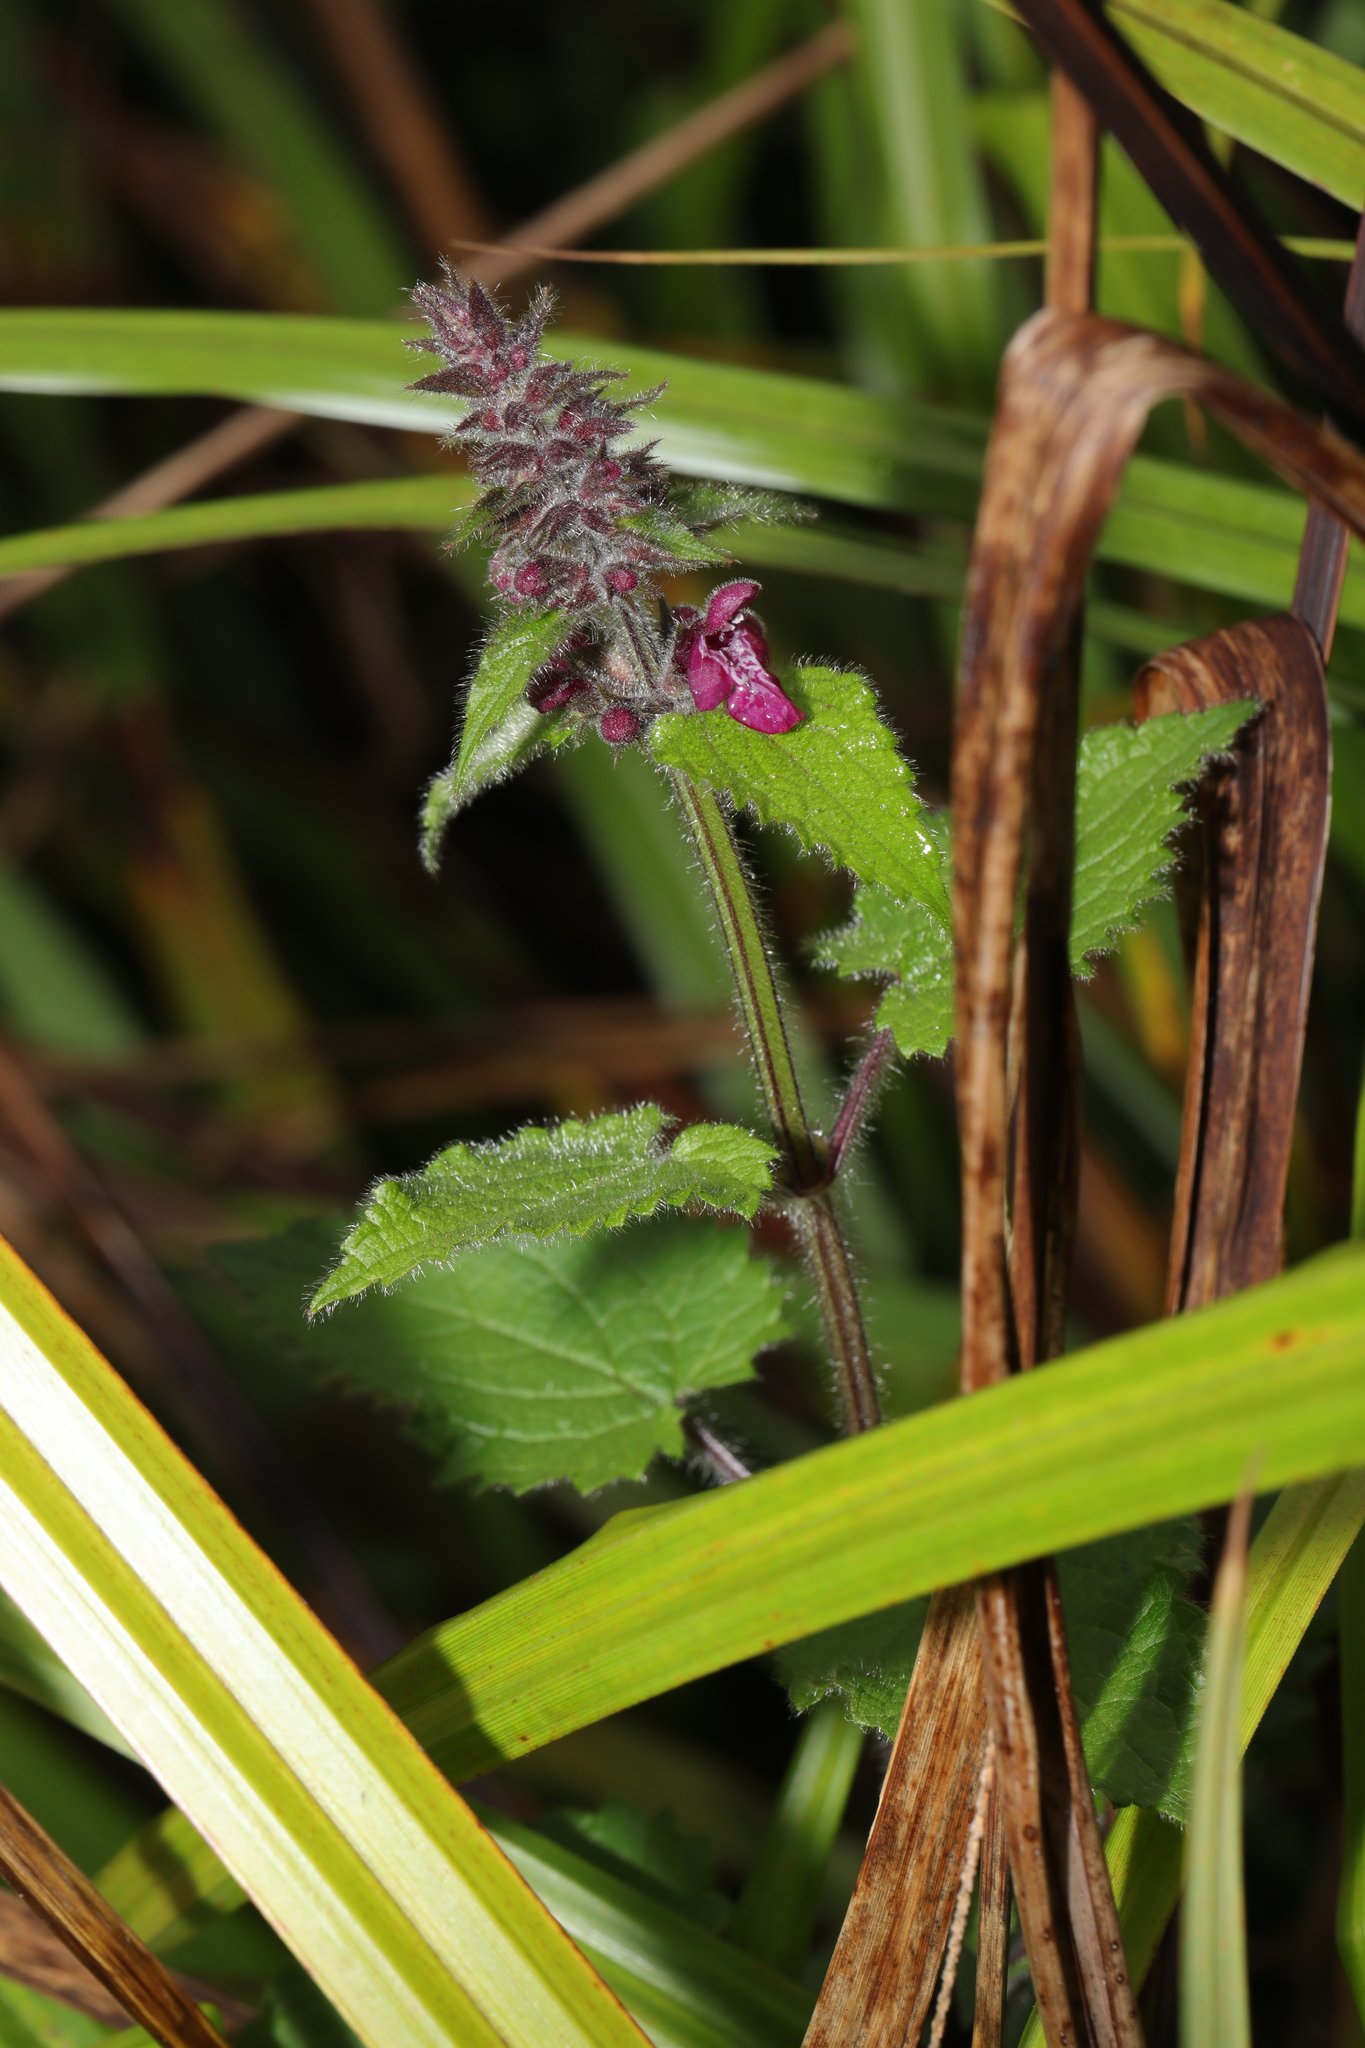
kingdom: Plantae
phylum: Tracheophyta
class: Magnoliopsida
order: Lamiales
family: Lamiaceae
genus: Stachys
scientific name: Stachys sylvatica
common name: Hedge woundwort
